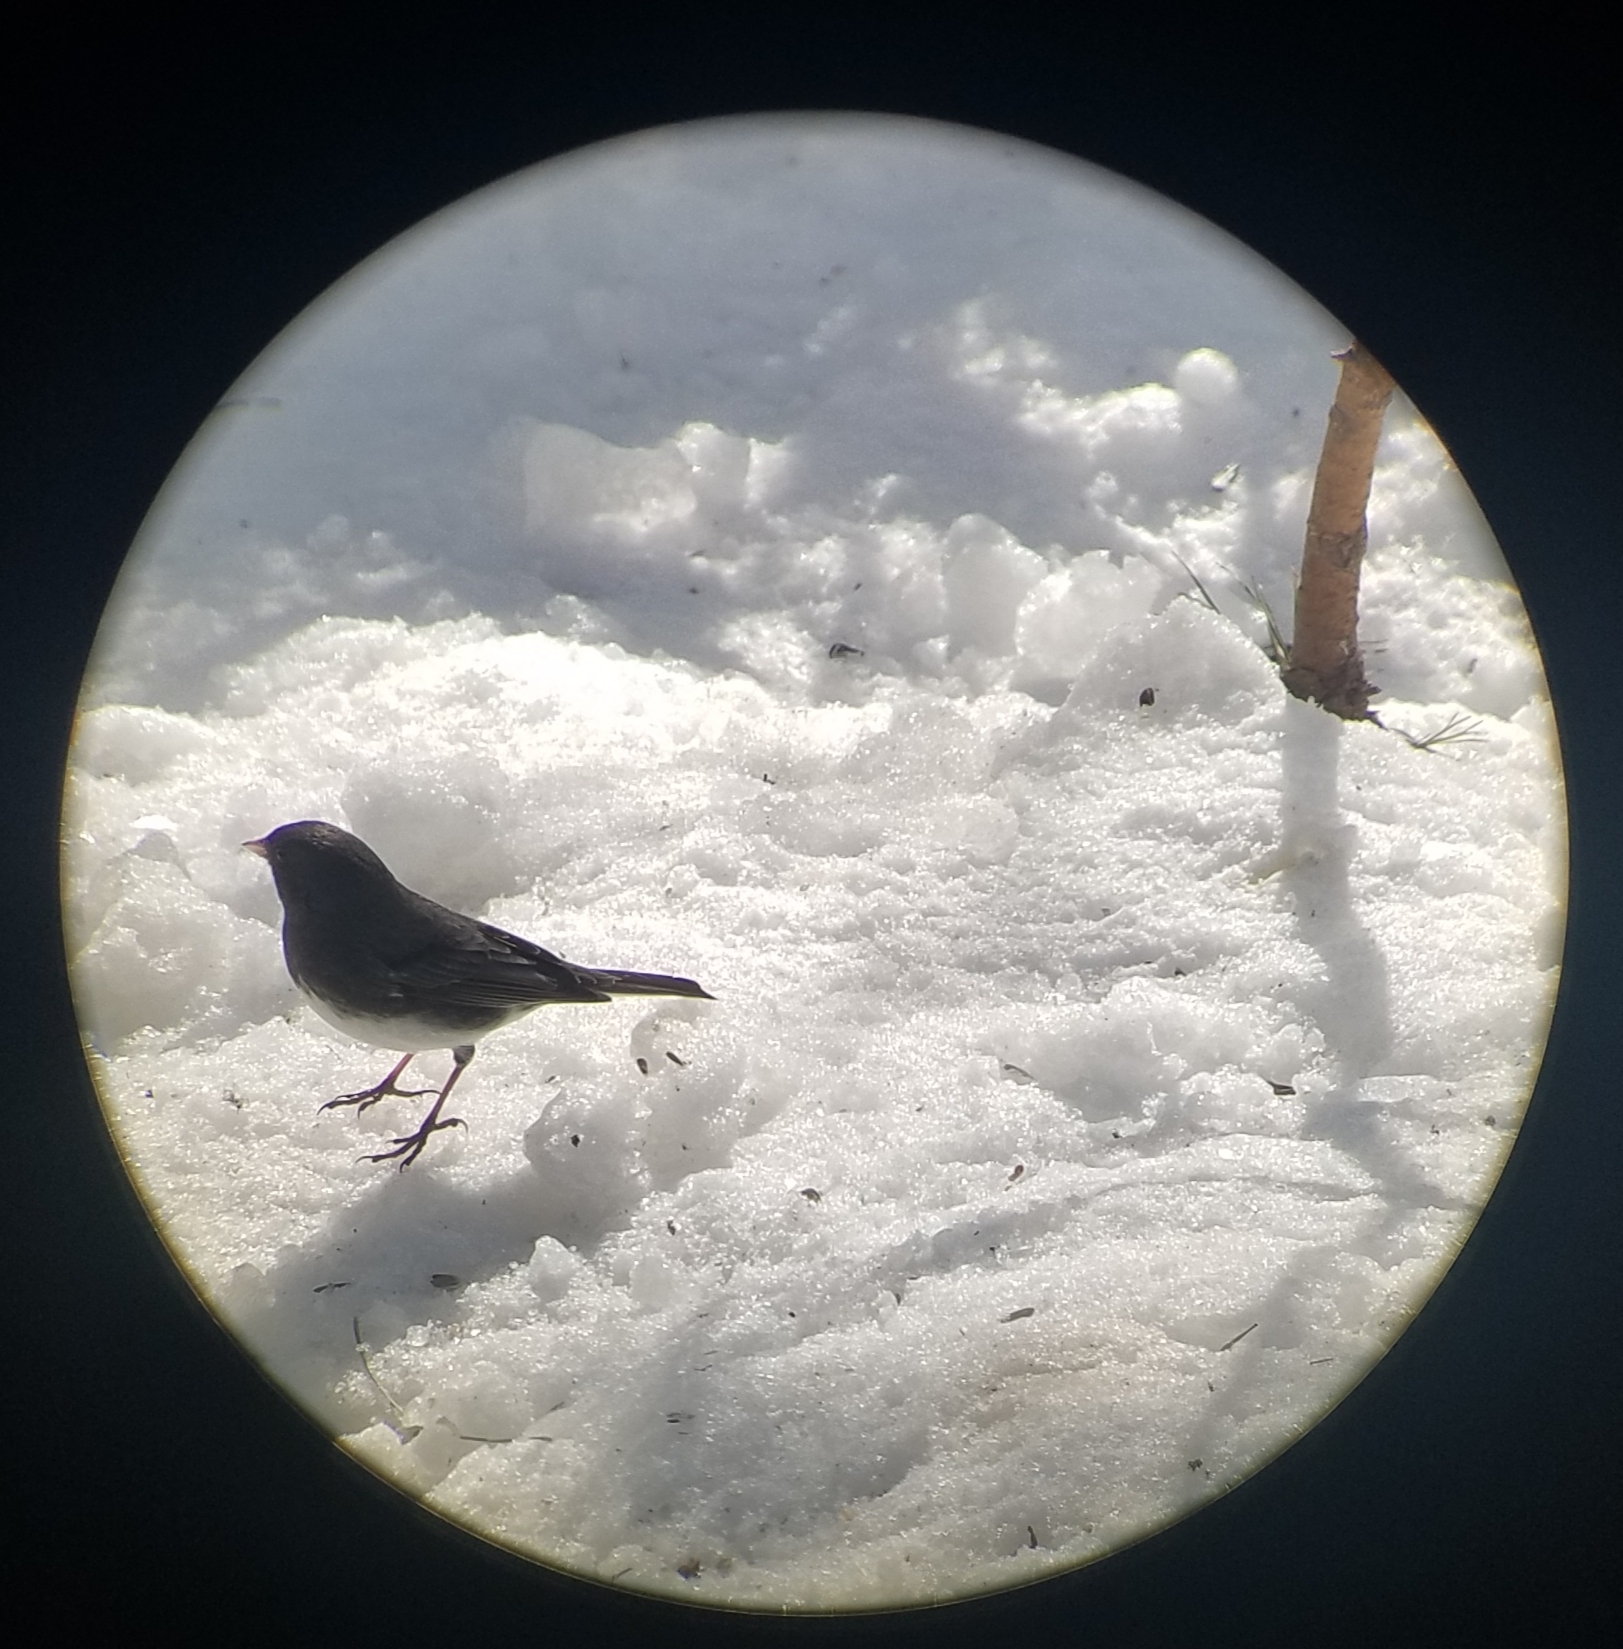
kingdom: Animalia
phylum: Chordata
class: Aves
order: Passeriformes
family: Passerellidae
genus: Junco
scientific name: Junco hyemalis
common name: Dark-eyed junco
